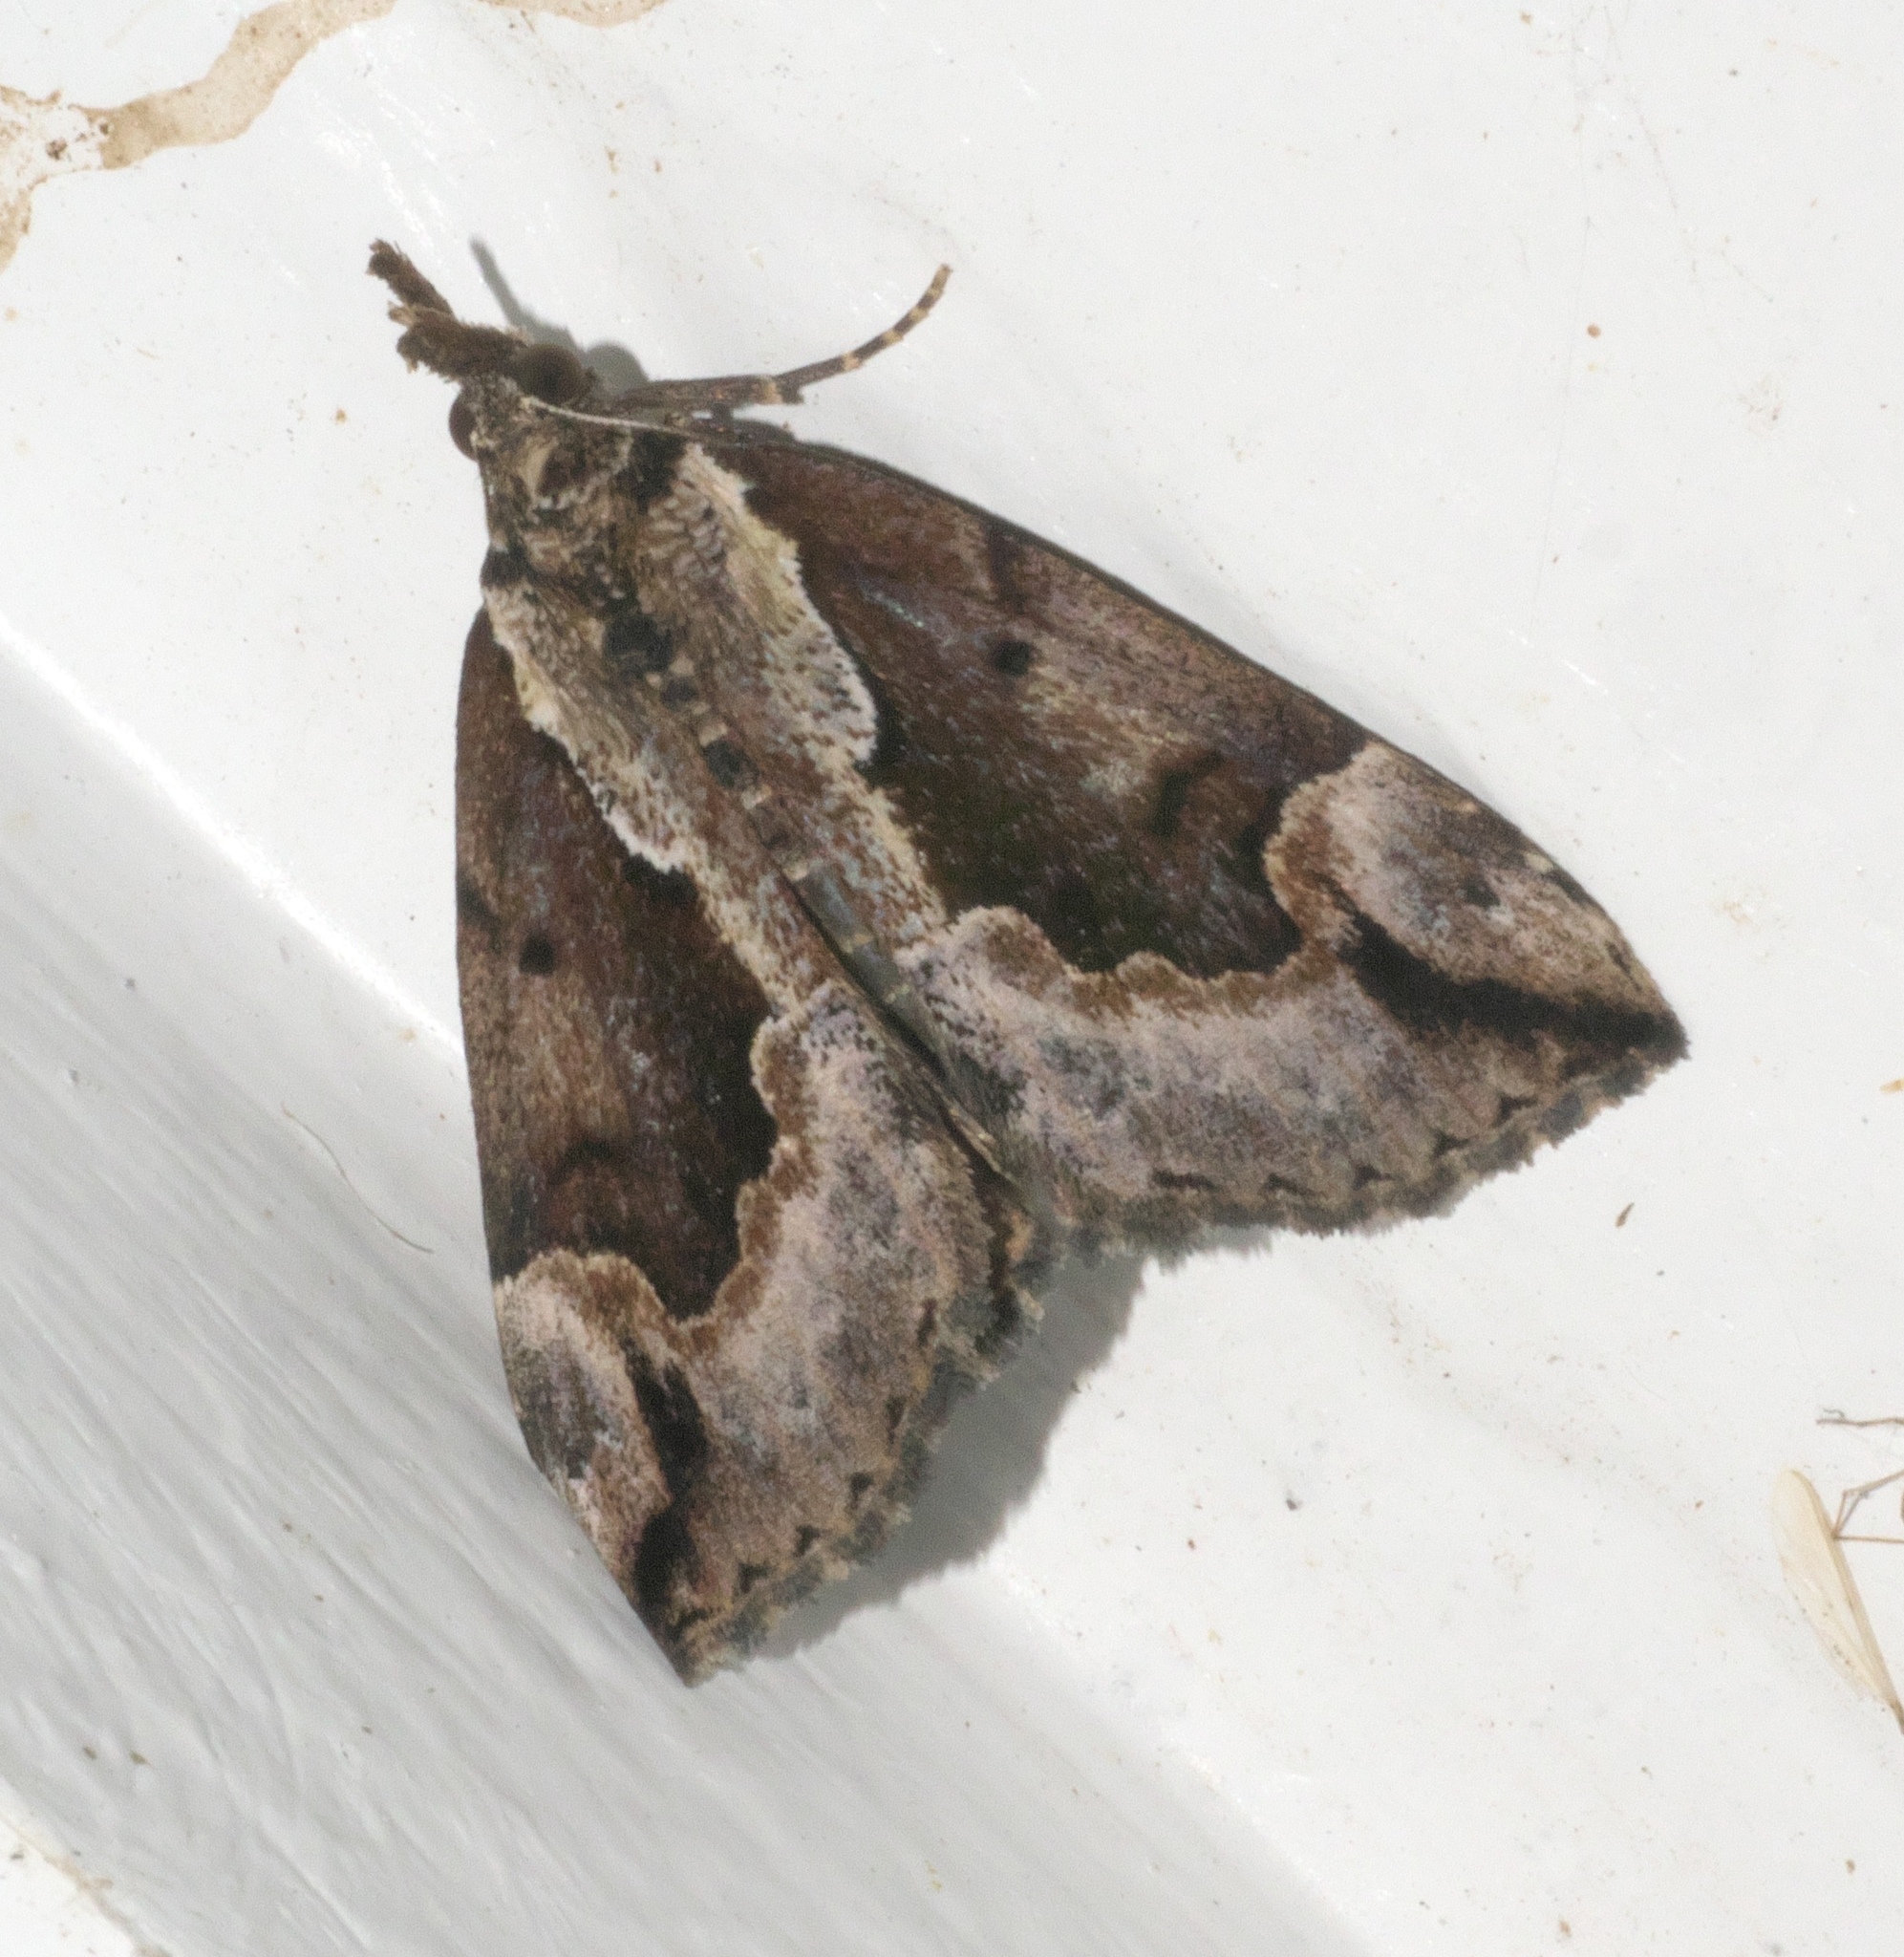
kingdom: Animalia
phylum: Arthropoda
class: Insecta
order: Lepidoptera
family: Erebidae
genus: Hypena
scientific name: Hypena baltimoralis
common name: Baltimore snout
